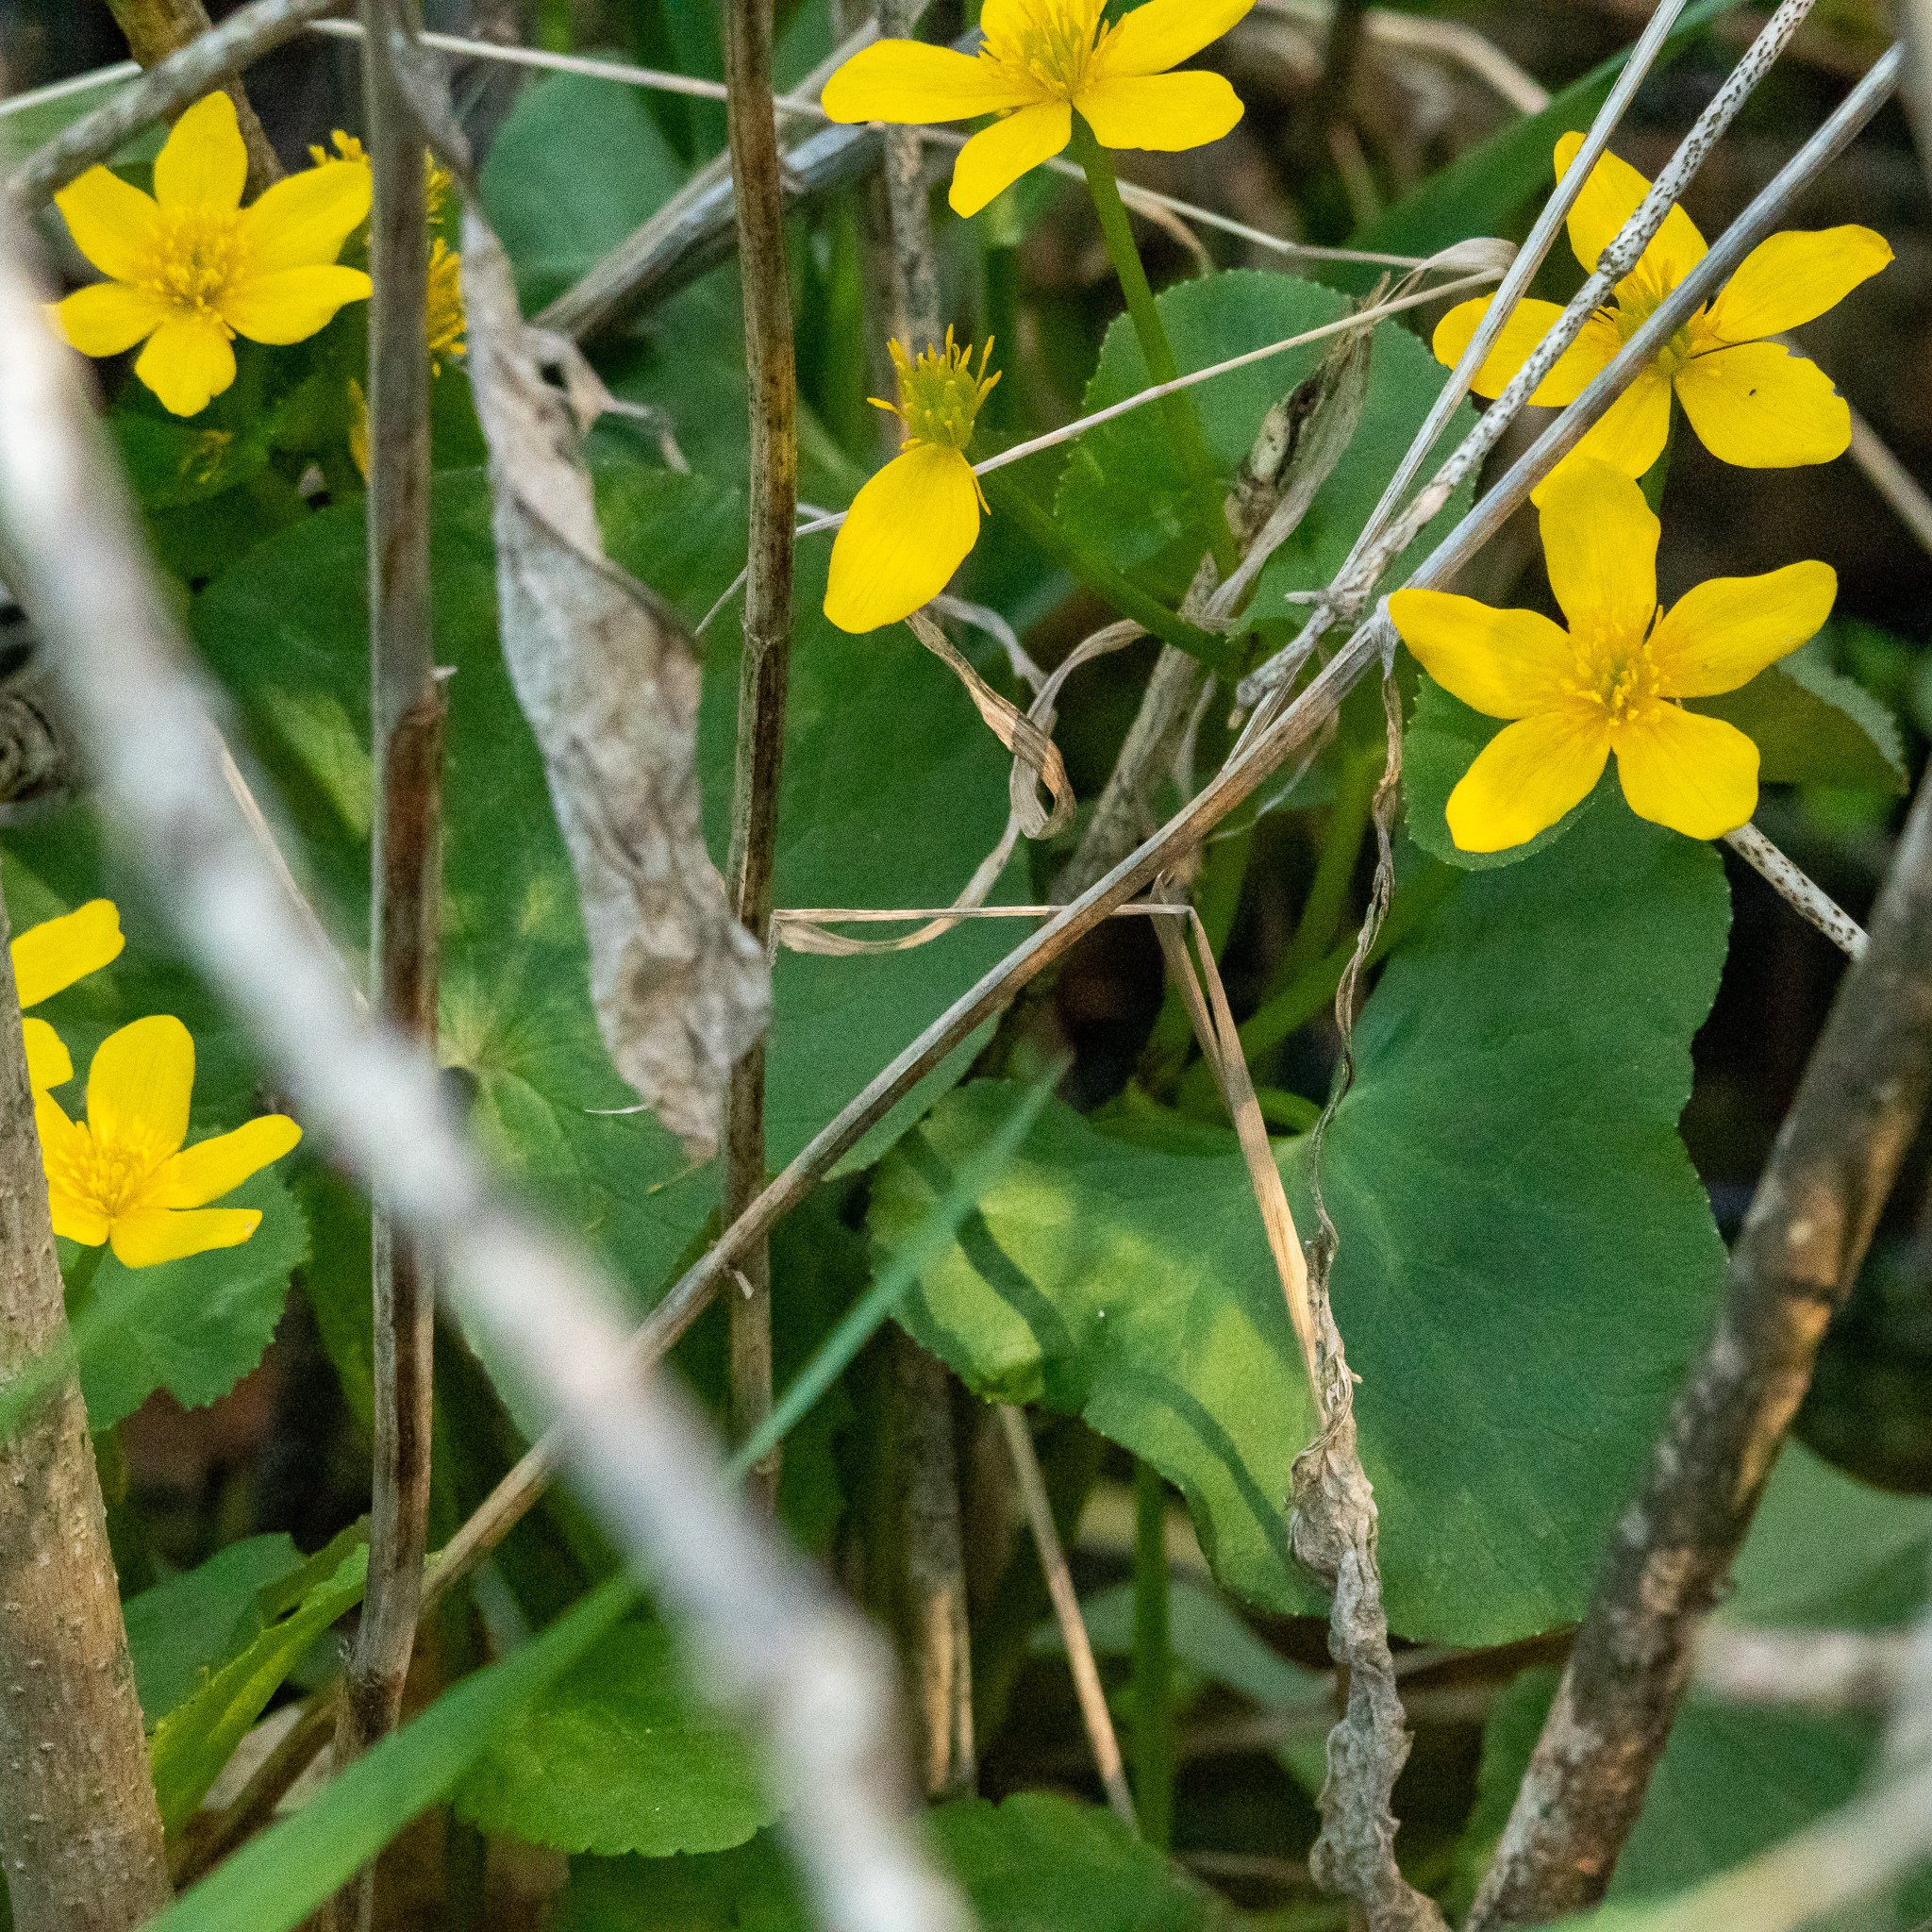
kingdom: Plantae
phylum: Tracheophyta
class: Magnoliopsida
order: Ranunculales
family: Ranunculaceae
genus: Caltha
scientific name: Caltha palustris
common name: Marsh marigold
